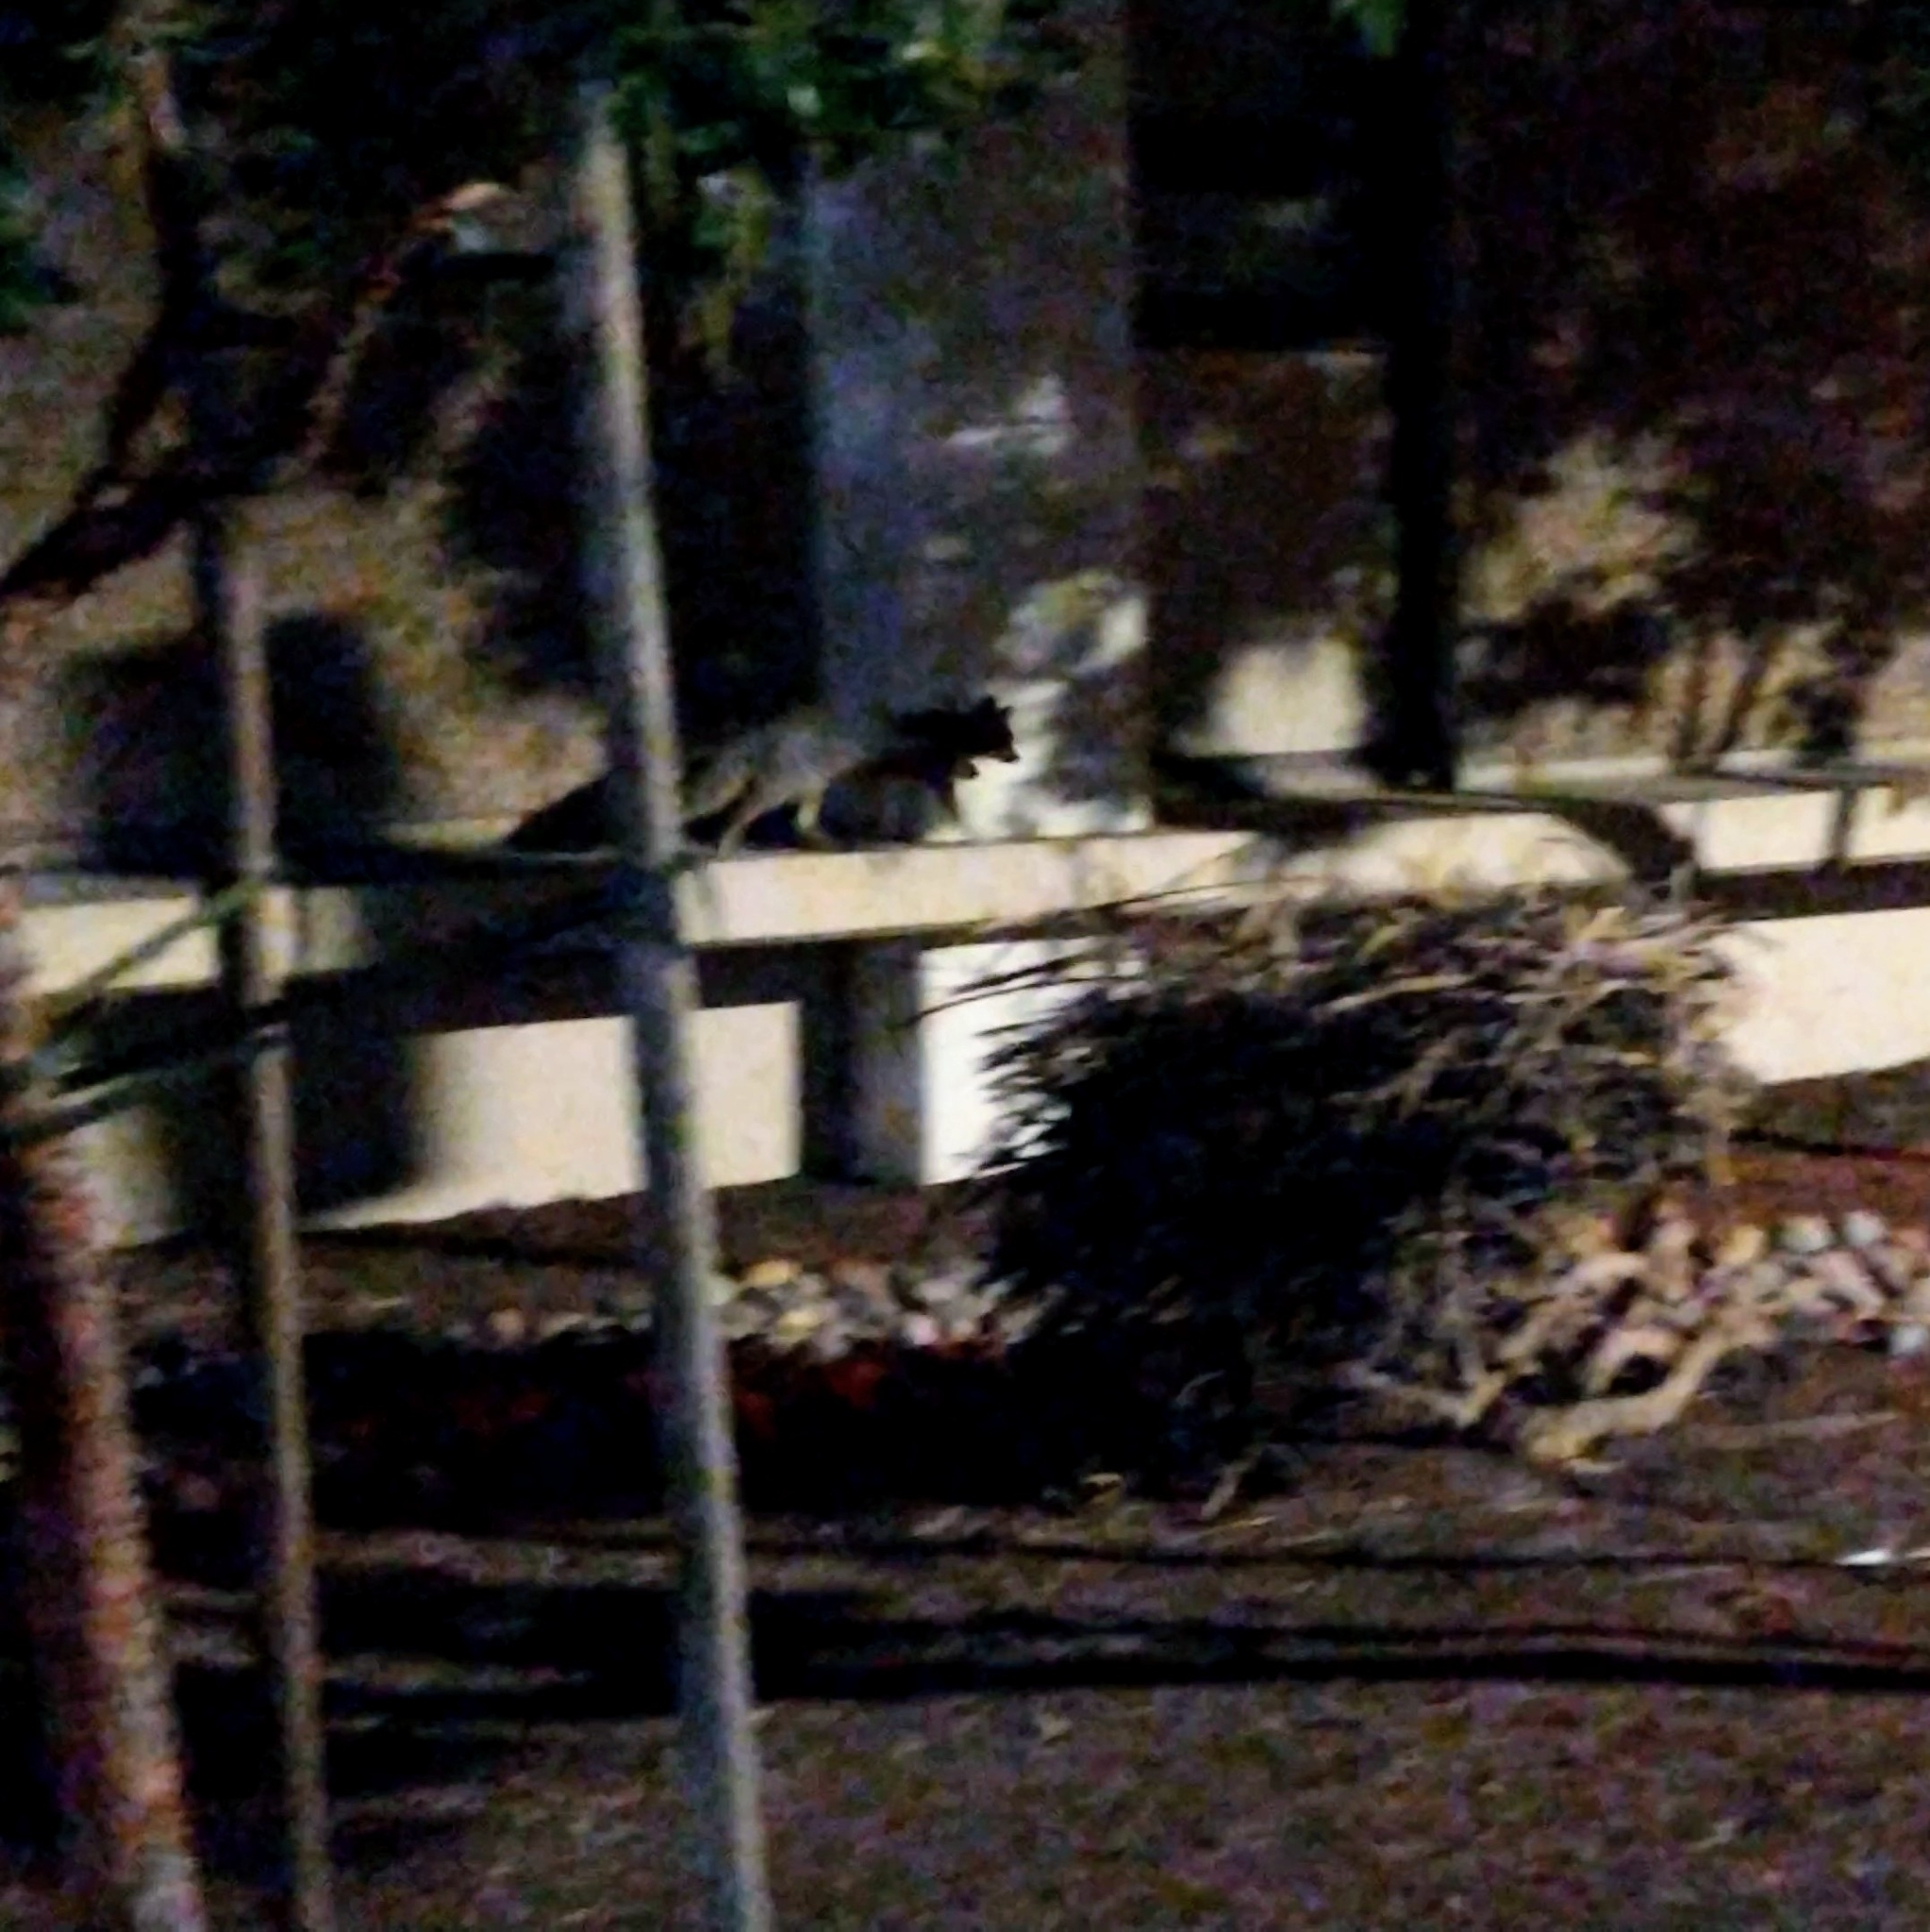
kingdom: Animalia
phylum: Chordata
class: Mammalia
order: Carnivora
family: Canidae
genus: Urocyon
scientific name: Urocyon cinereoargenteus
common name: Gray fox
